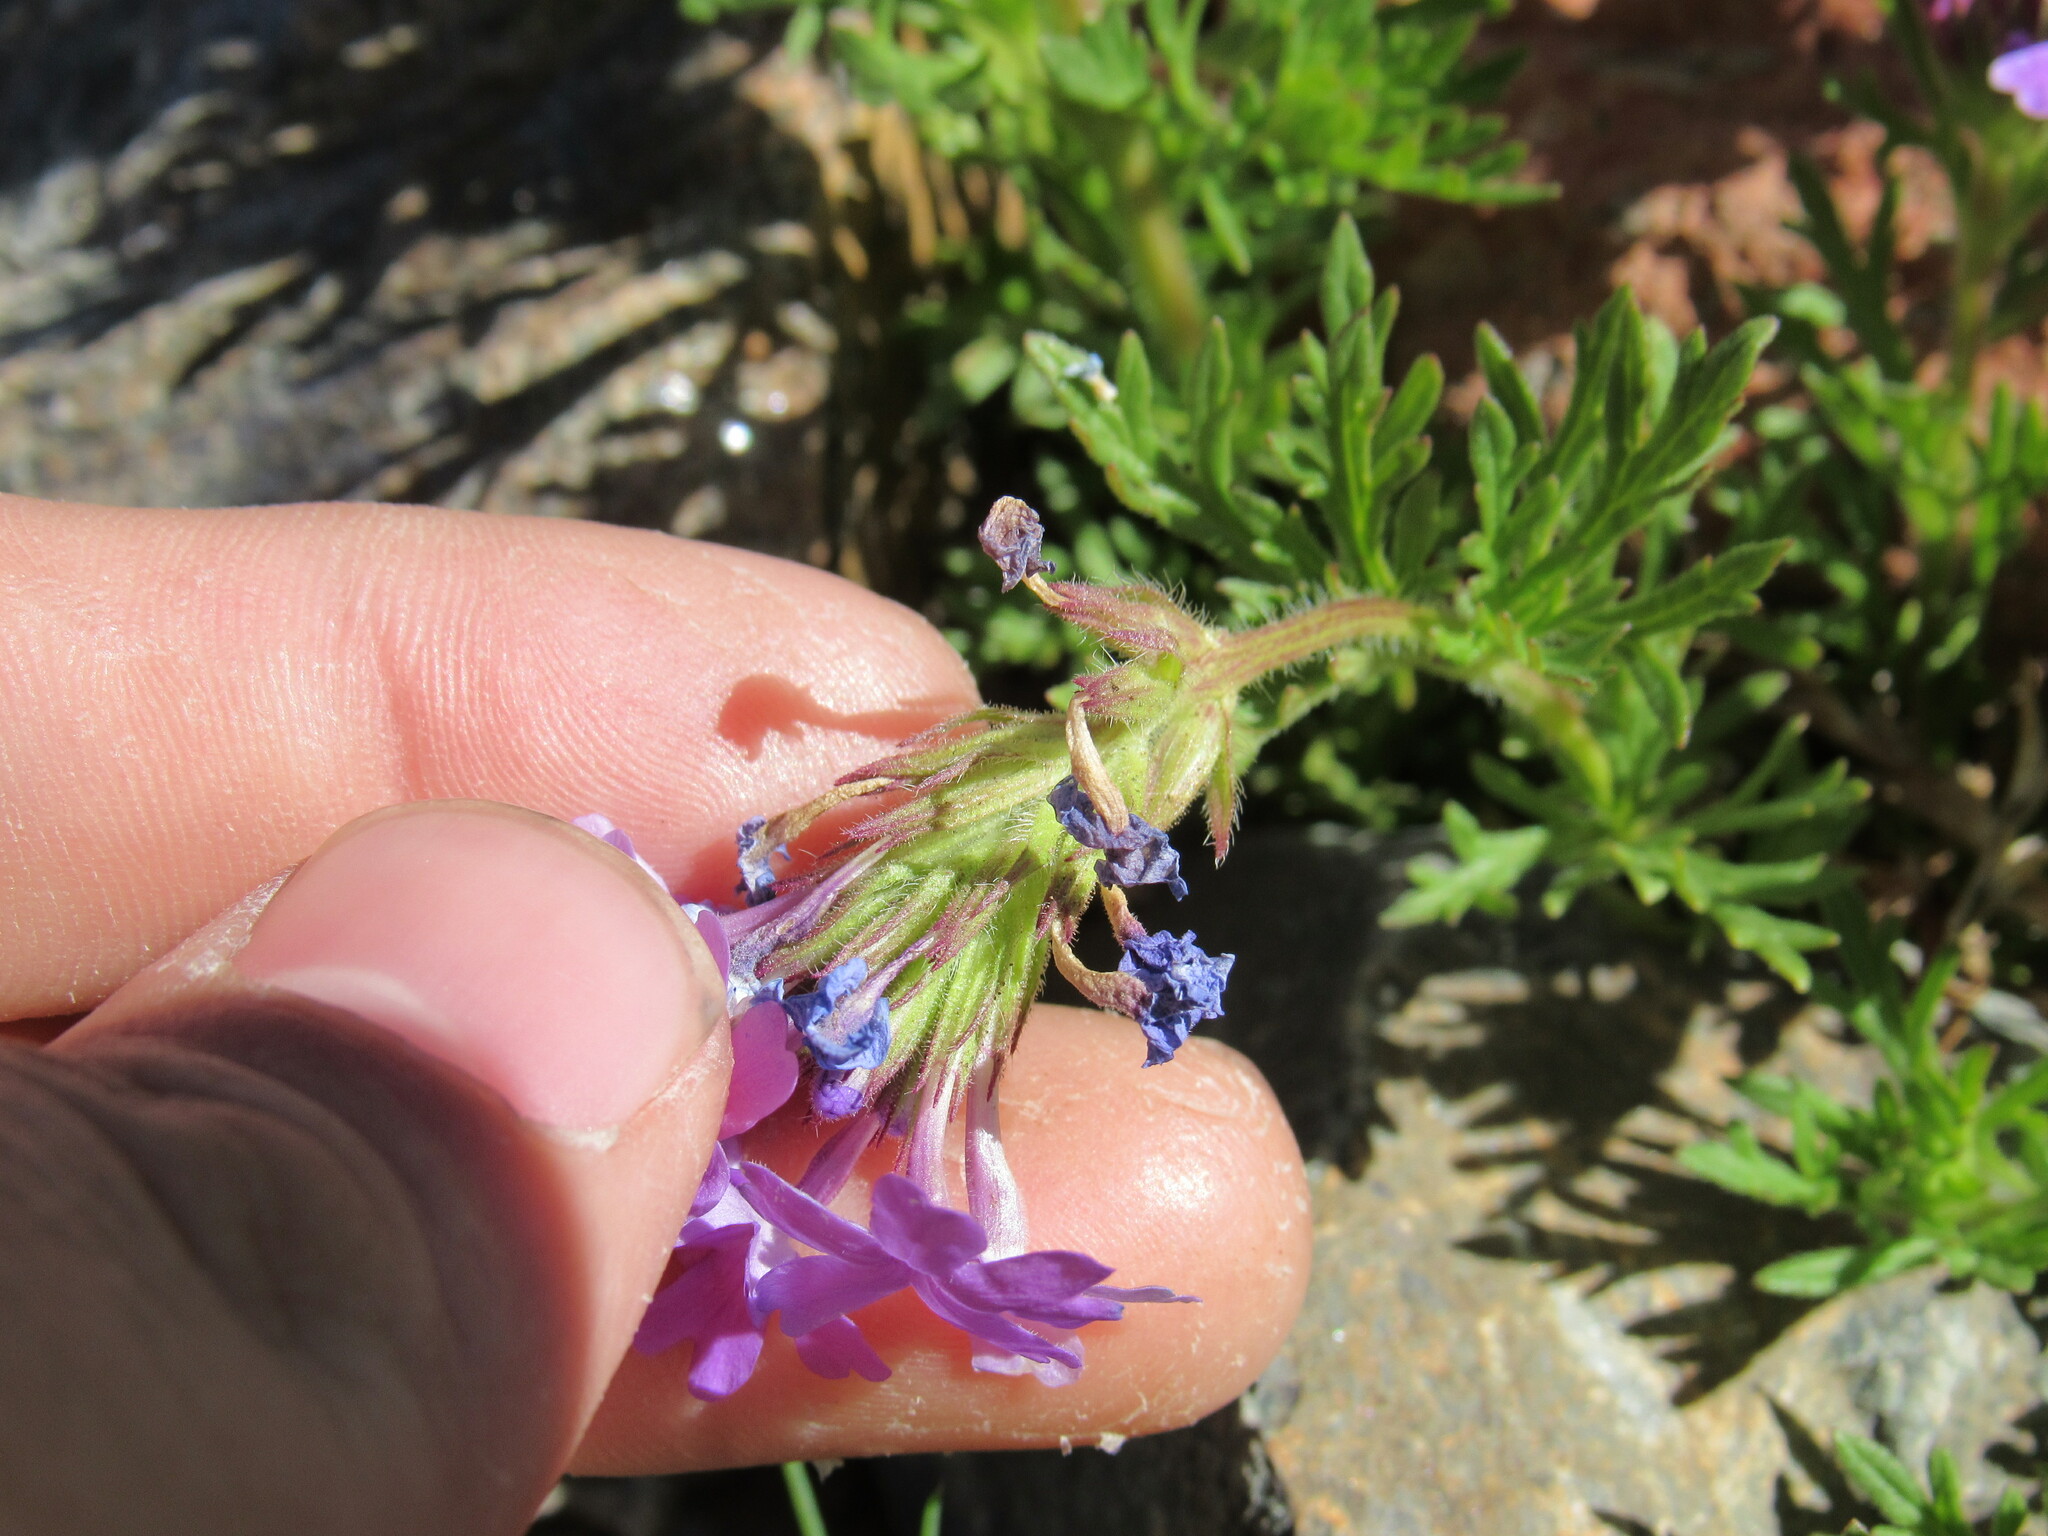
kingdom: Plantae
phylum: Tracheophyta
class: Magnoliopsida
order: Lamiales
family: Verbenaceae
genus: Verbena
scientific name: Verbena bipinnatifida
